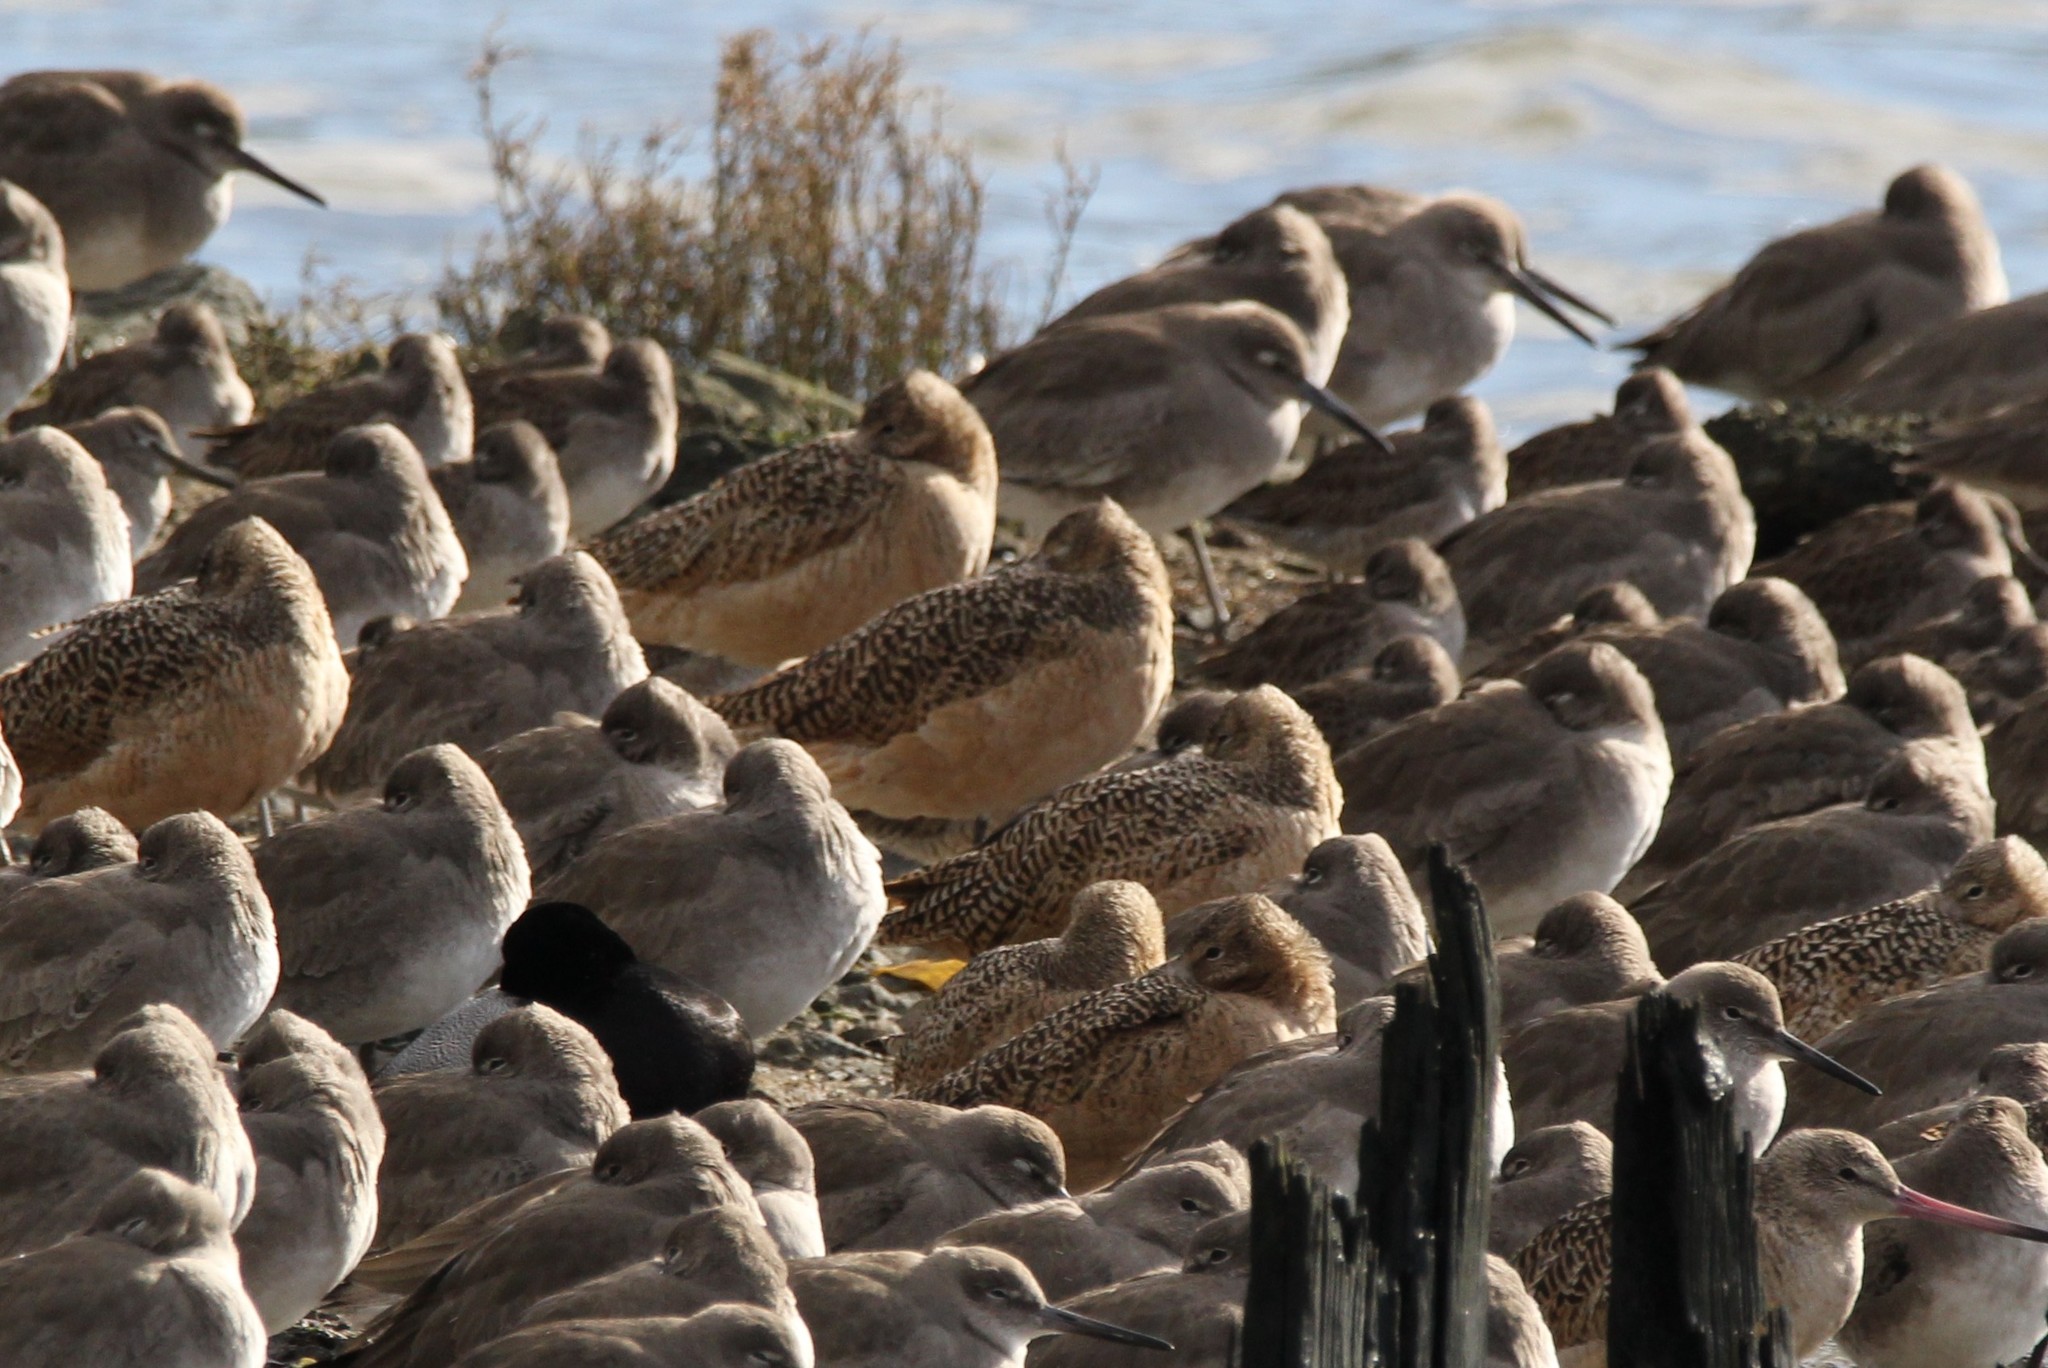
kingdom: Animalia
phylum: Chordata
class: Aves
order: Charadriiformes
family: Scolopacidae
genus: Limosa
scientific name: Limosa fedoa
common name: Marbled godwit
